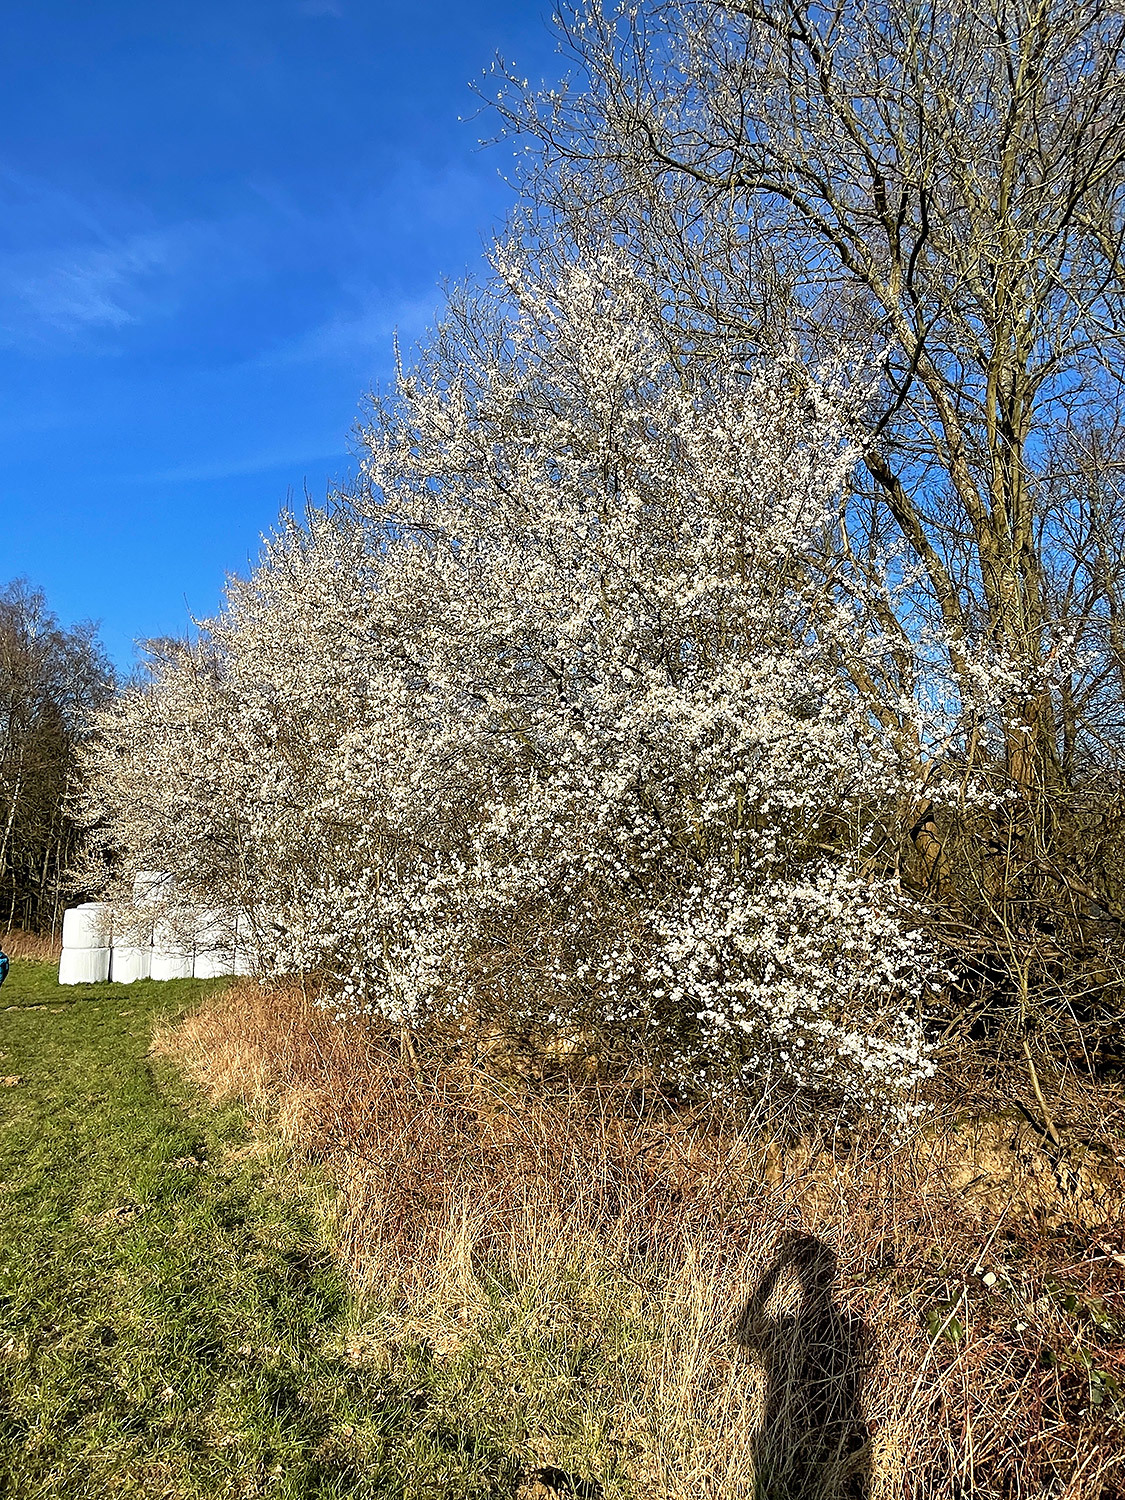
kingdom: Plantae
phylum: Tracheophyta
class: Magnoliopsida
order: Rosales
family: Rosaceae
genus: Prunus
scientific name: Prunus cerasifera
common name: Cherry plum
